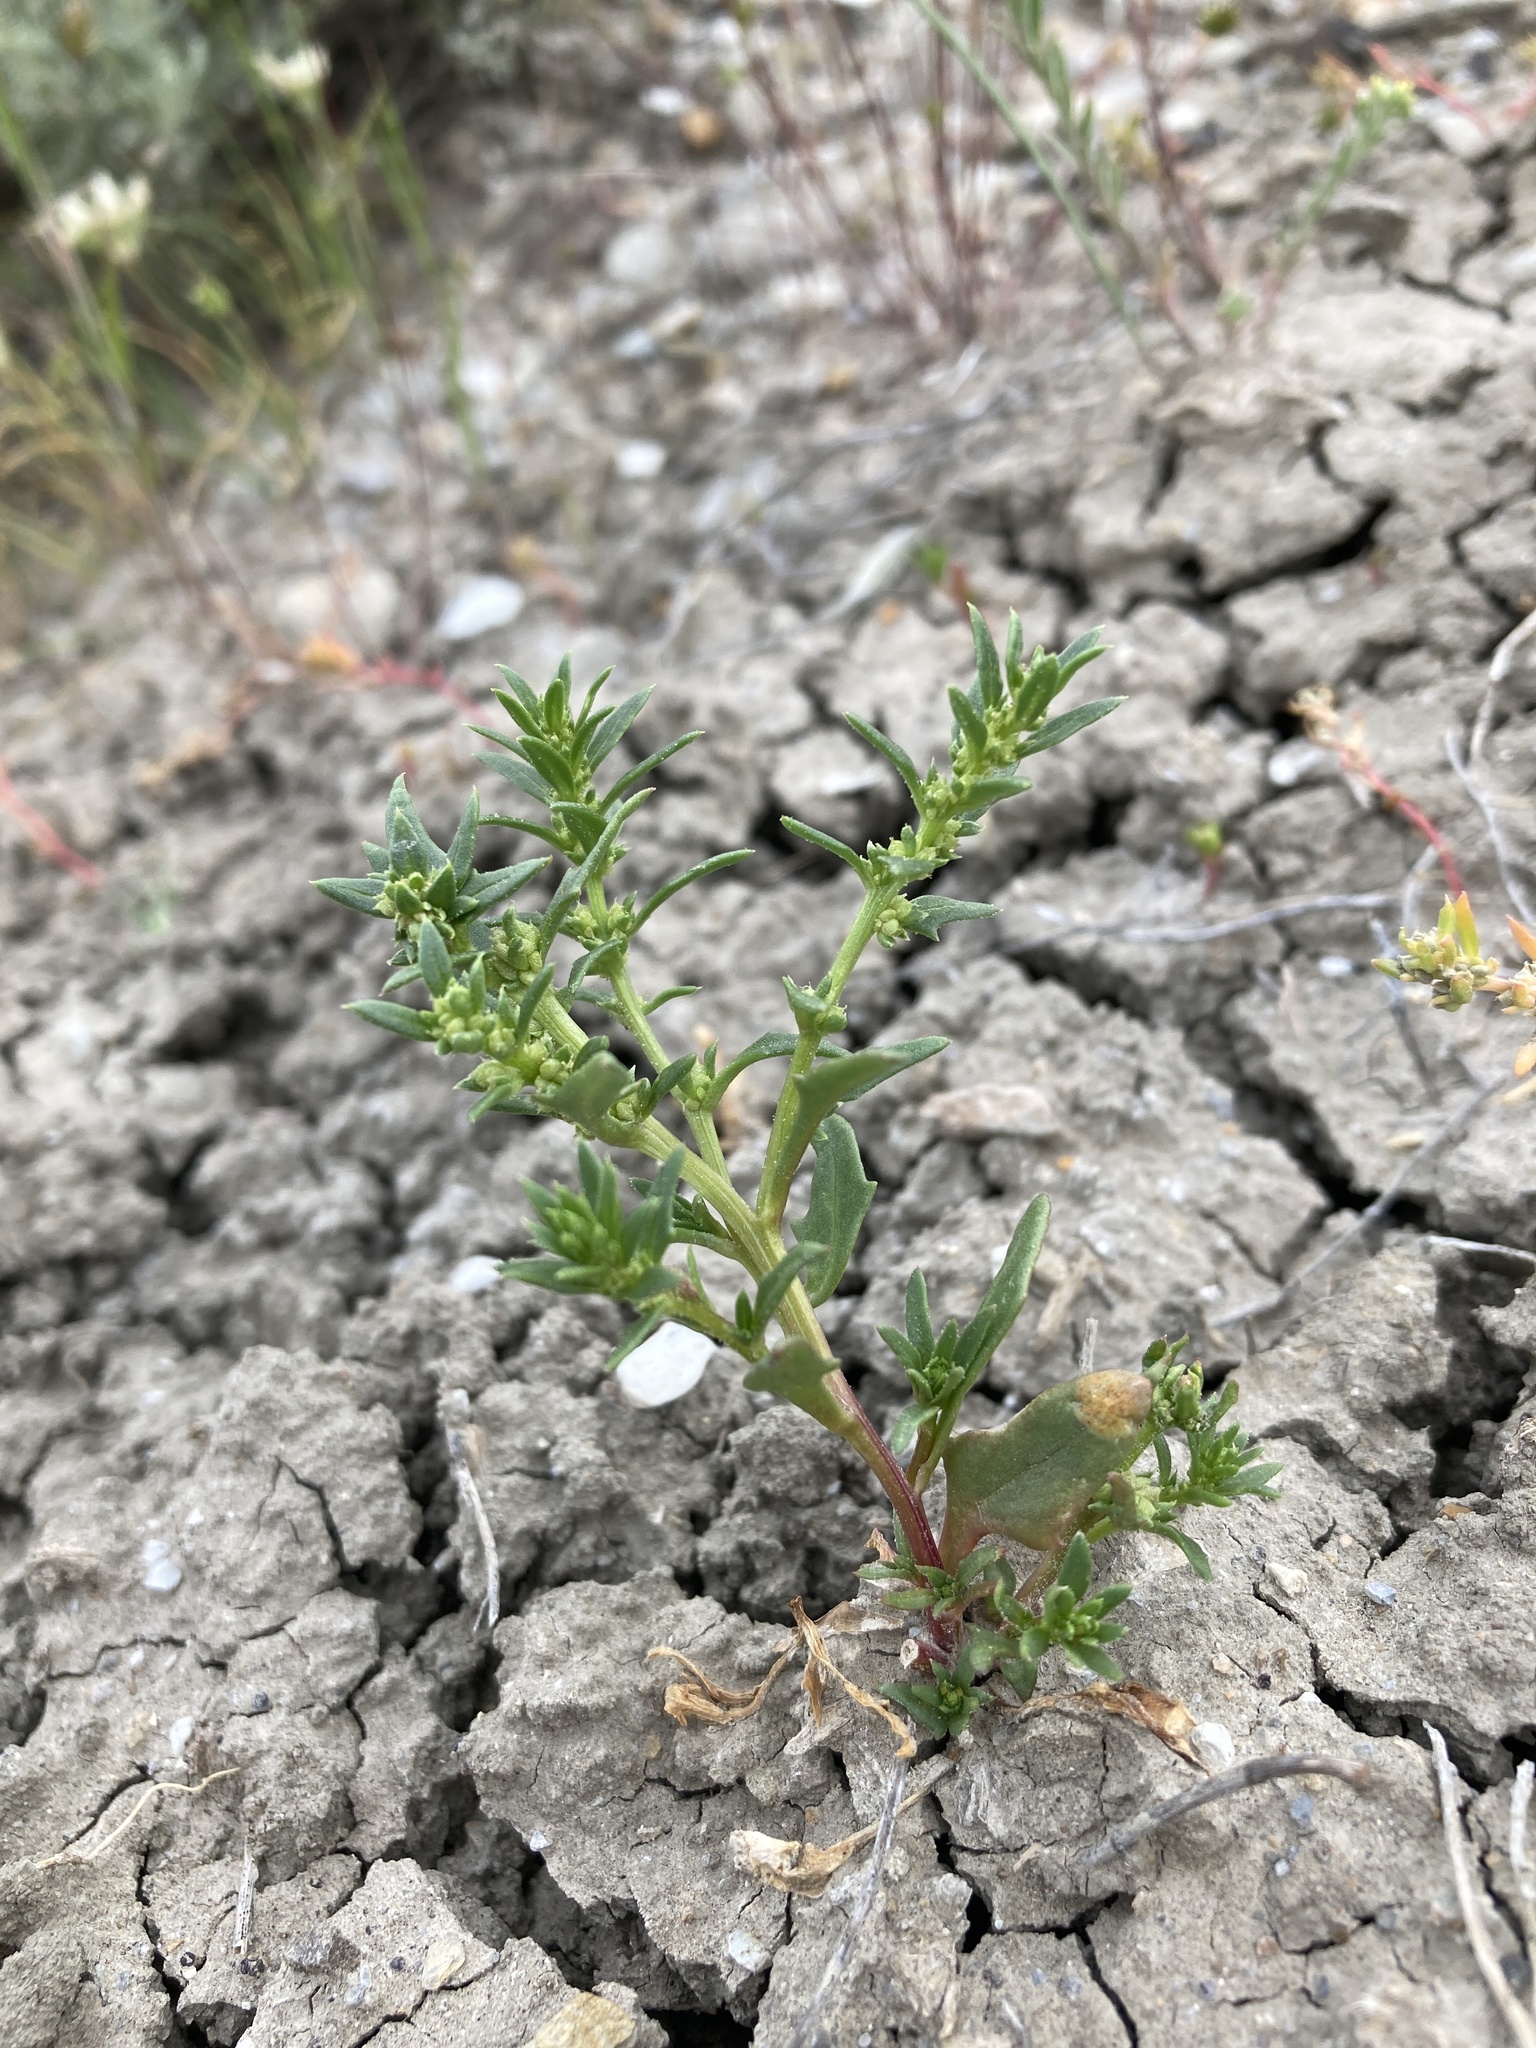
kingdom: Plantae
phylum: Tracheophyta
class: Magnoliopsida
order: Caryophyllales
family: Amaranthaceae
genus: Blitum
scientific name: Blitum nuttallianum
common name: Poverty-weed
